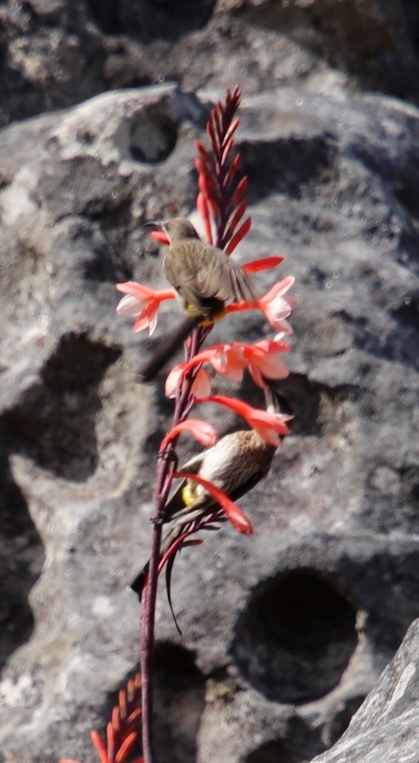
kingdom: Animalia
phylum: Chordata
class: Aves
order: Passeriformes
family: Promeropidae
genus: Promerops
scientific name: Promerops cafer
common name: Cape sugarbird
